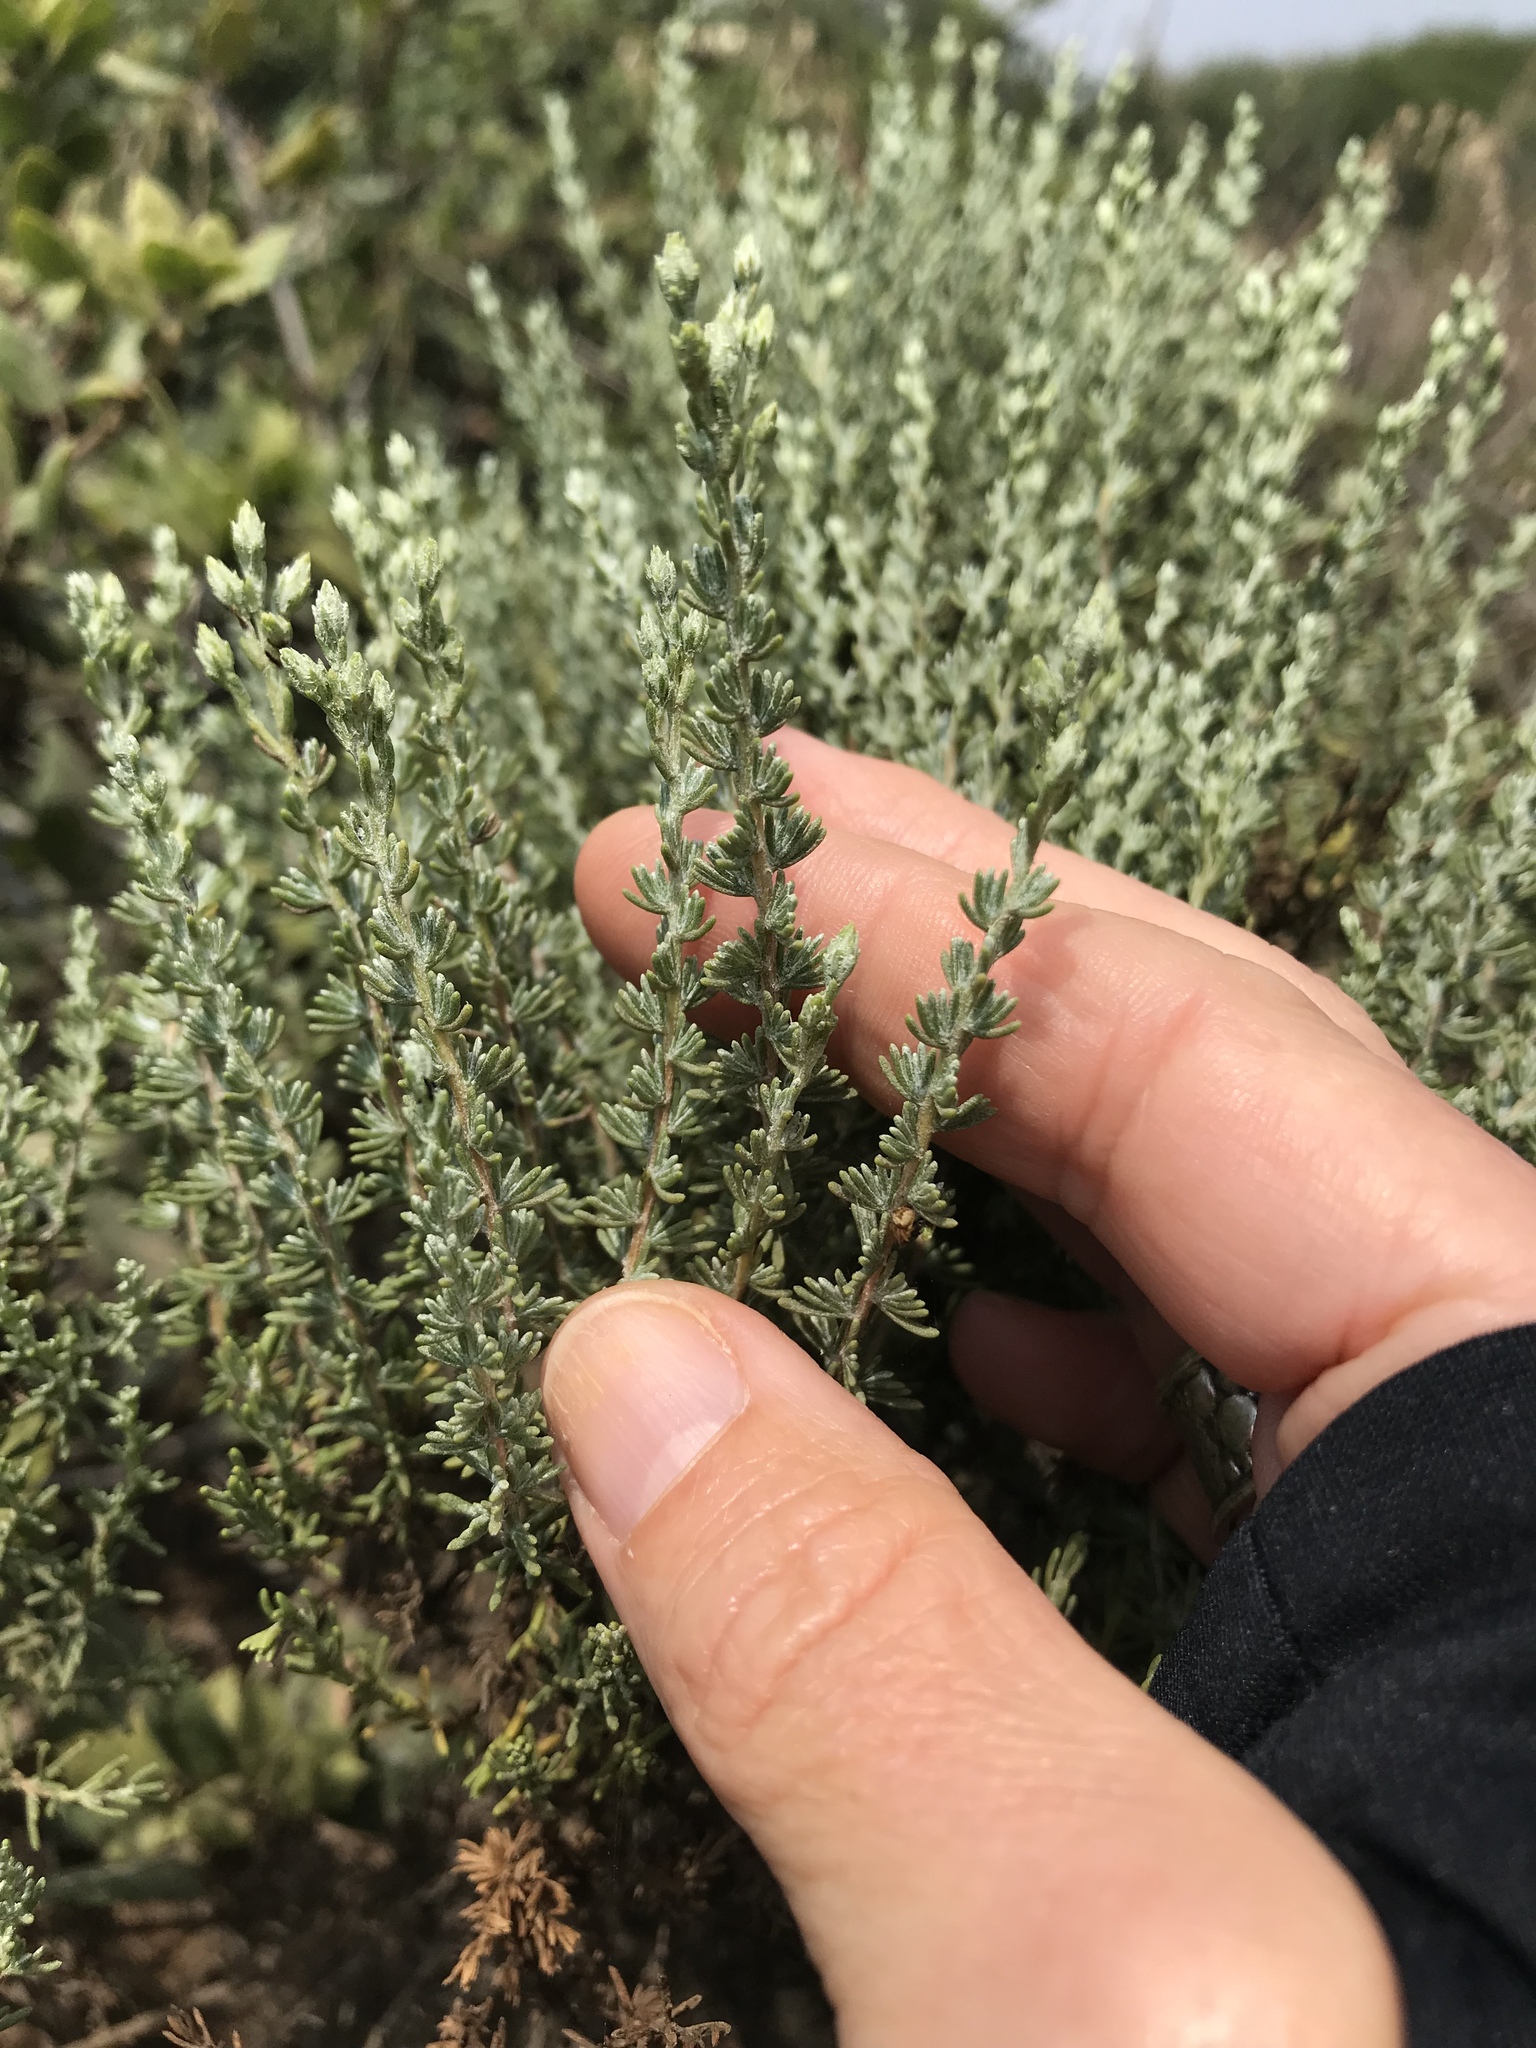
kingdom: Plantae
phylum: Tracheophyta
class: Magnoliopsida
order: Asterales
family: Asteraceae
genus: Ericameria
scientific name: Ericameria ericoides
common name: California goldenbush
